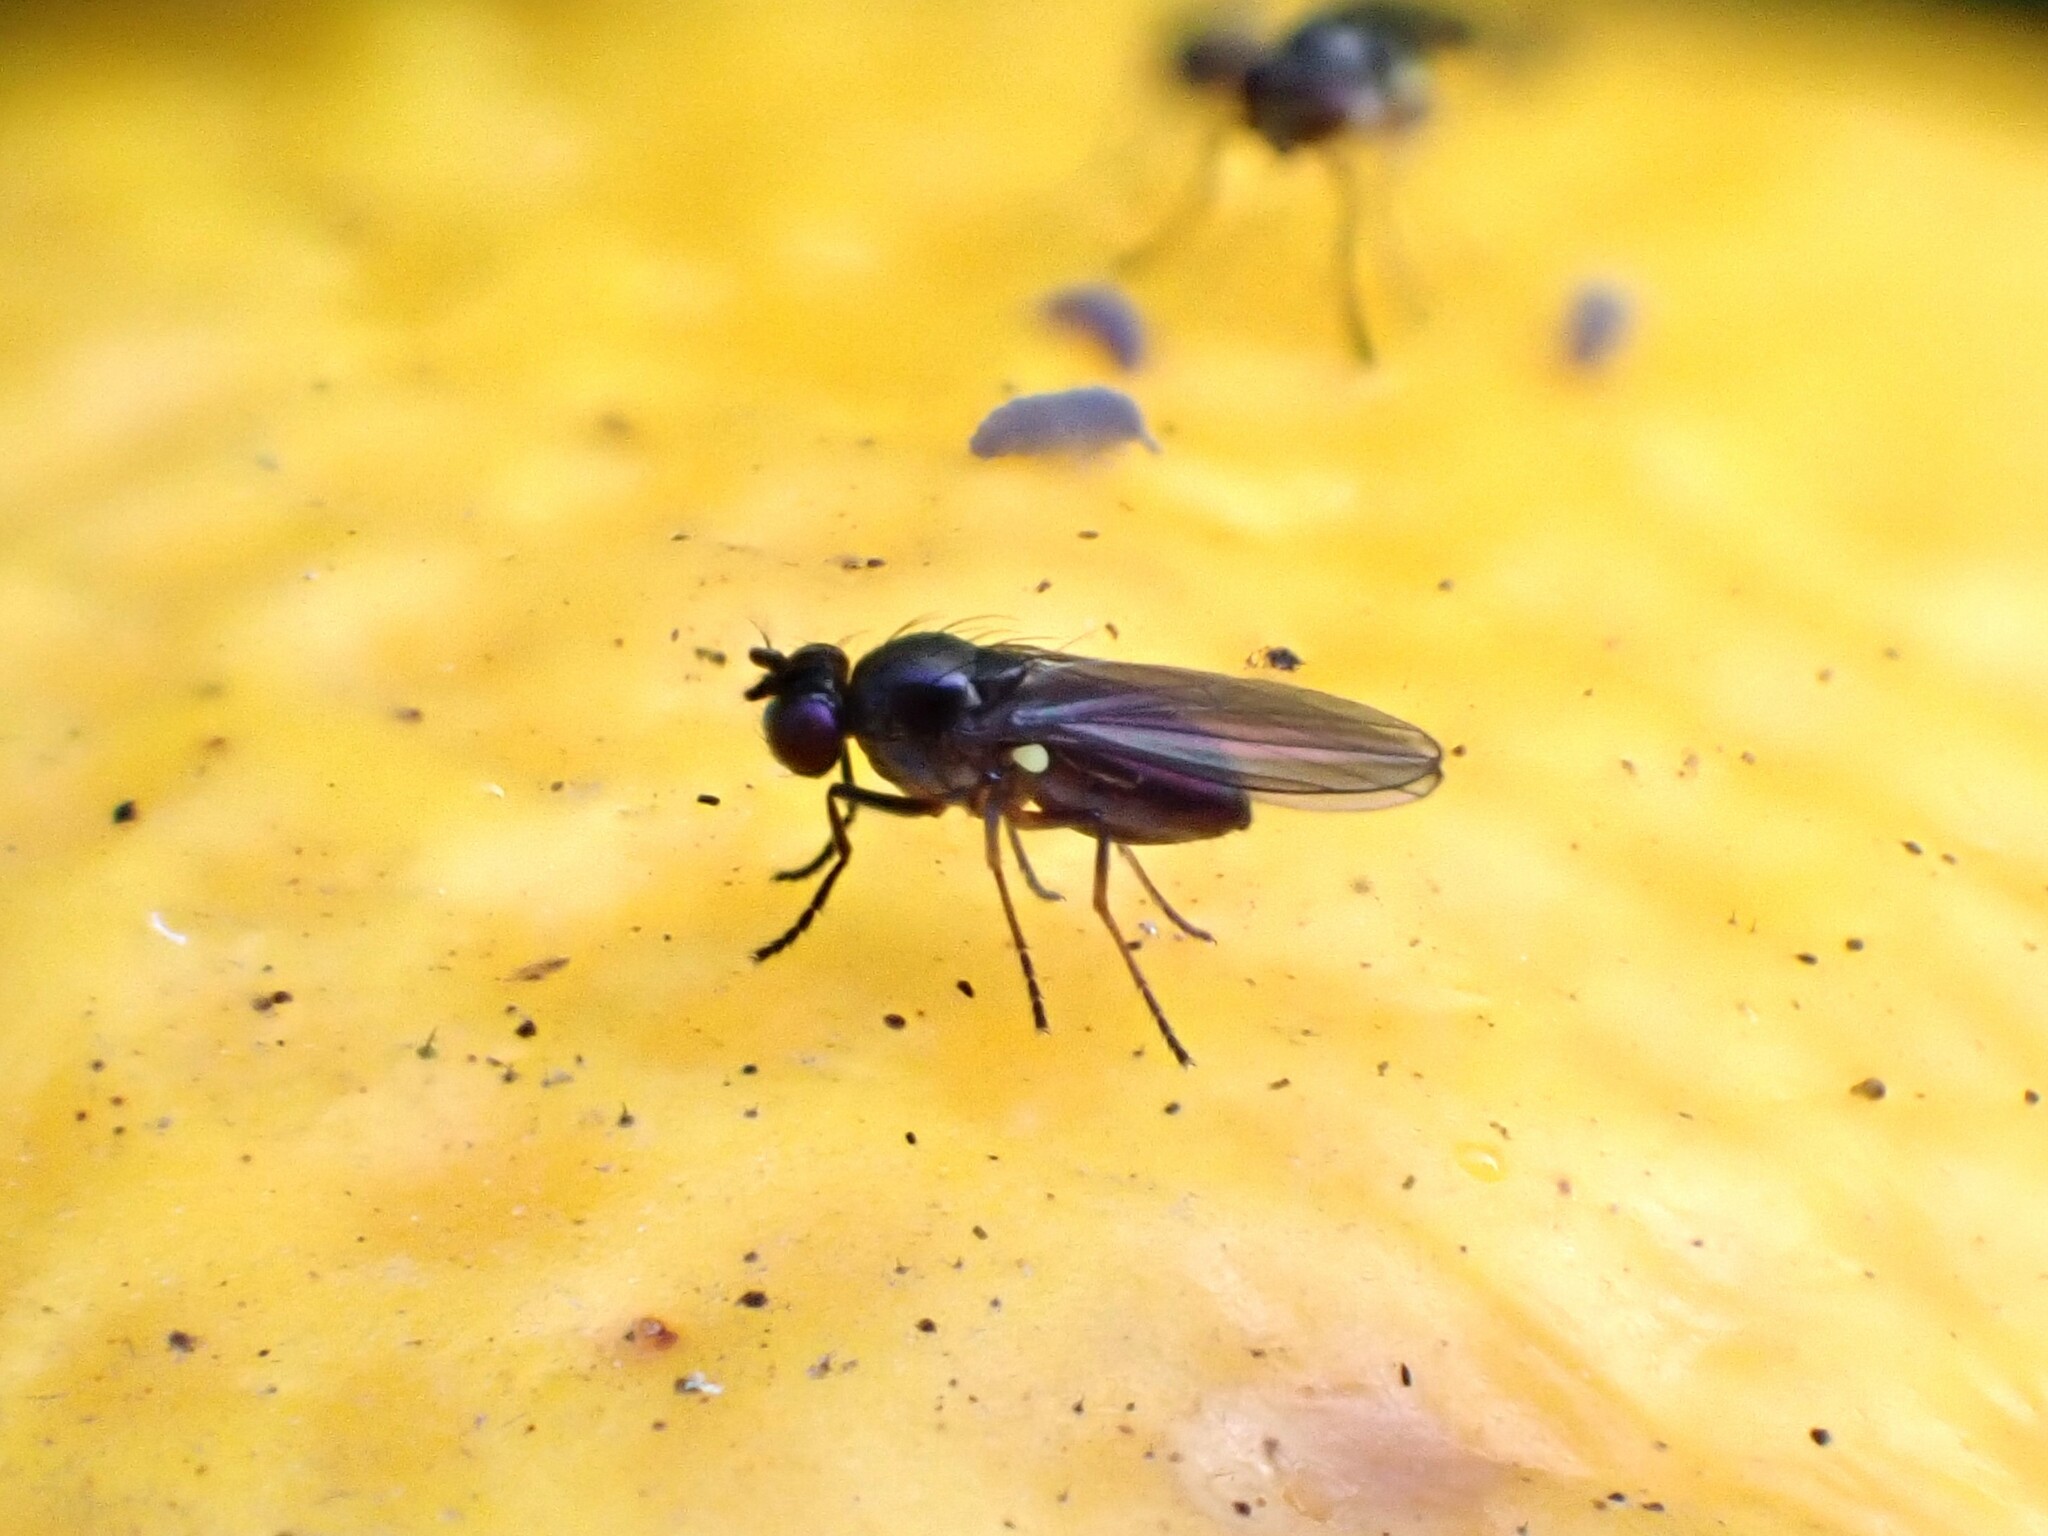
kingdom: Animalia
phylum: Arthropoda
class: Insecta
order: Diptera
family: Ephydridae
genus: Hydrellia
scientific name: Hydrellia tritici
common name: Shore fly
